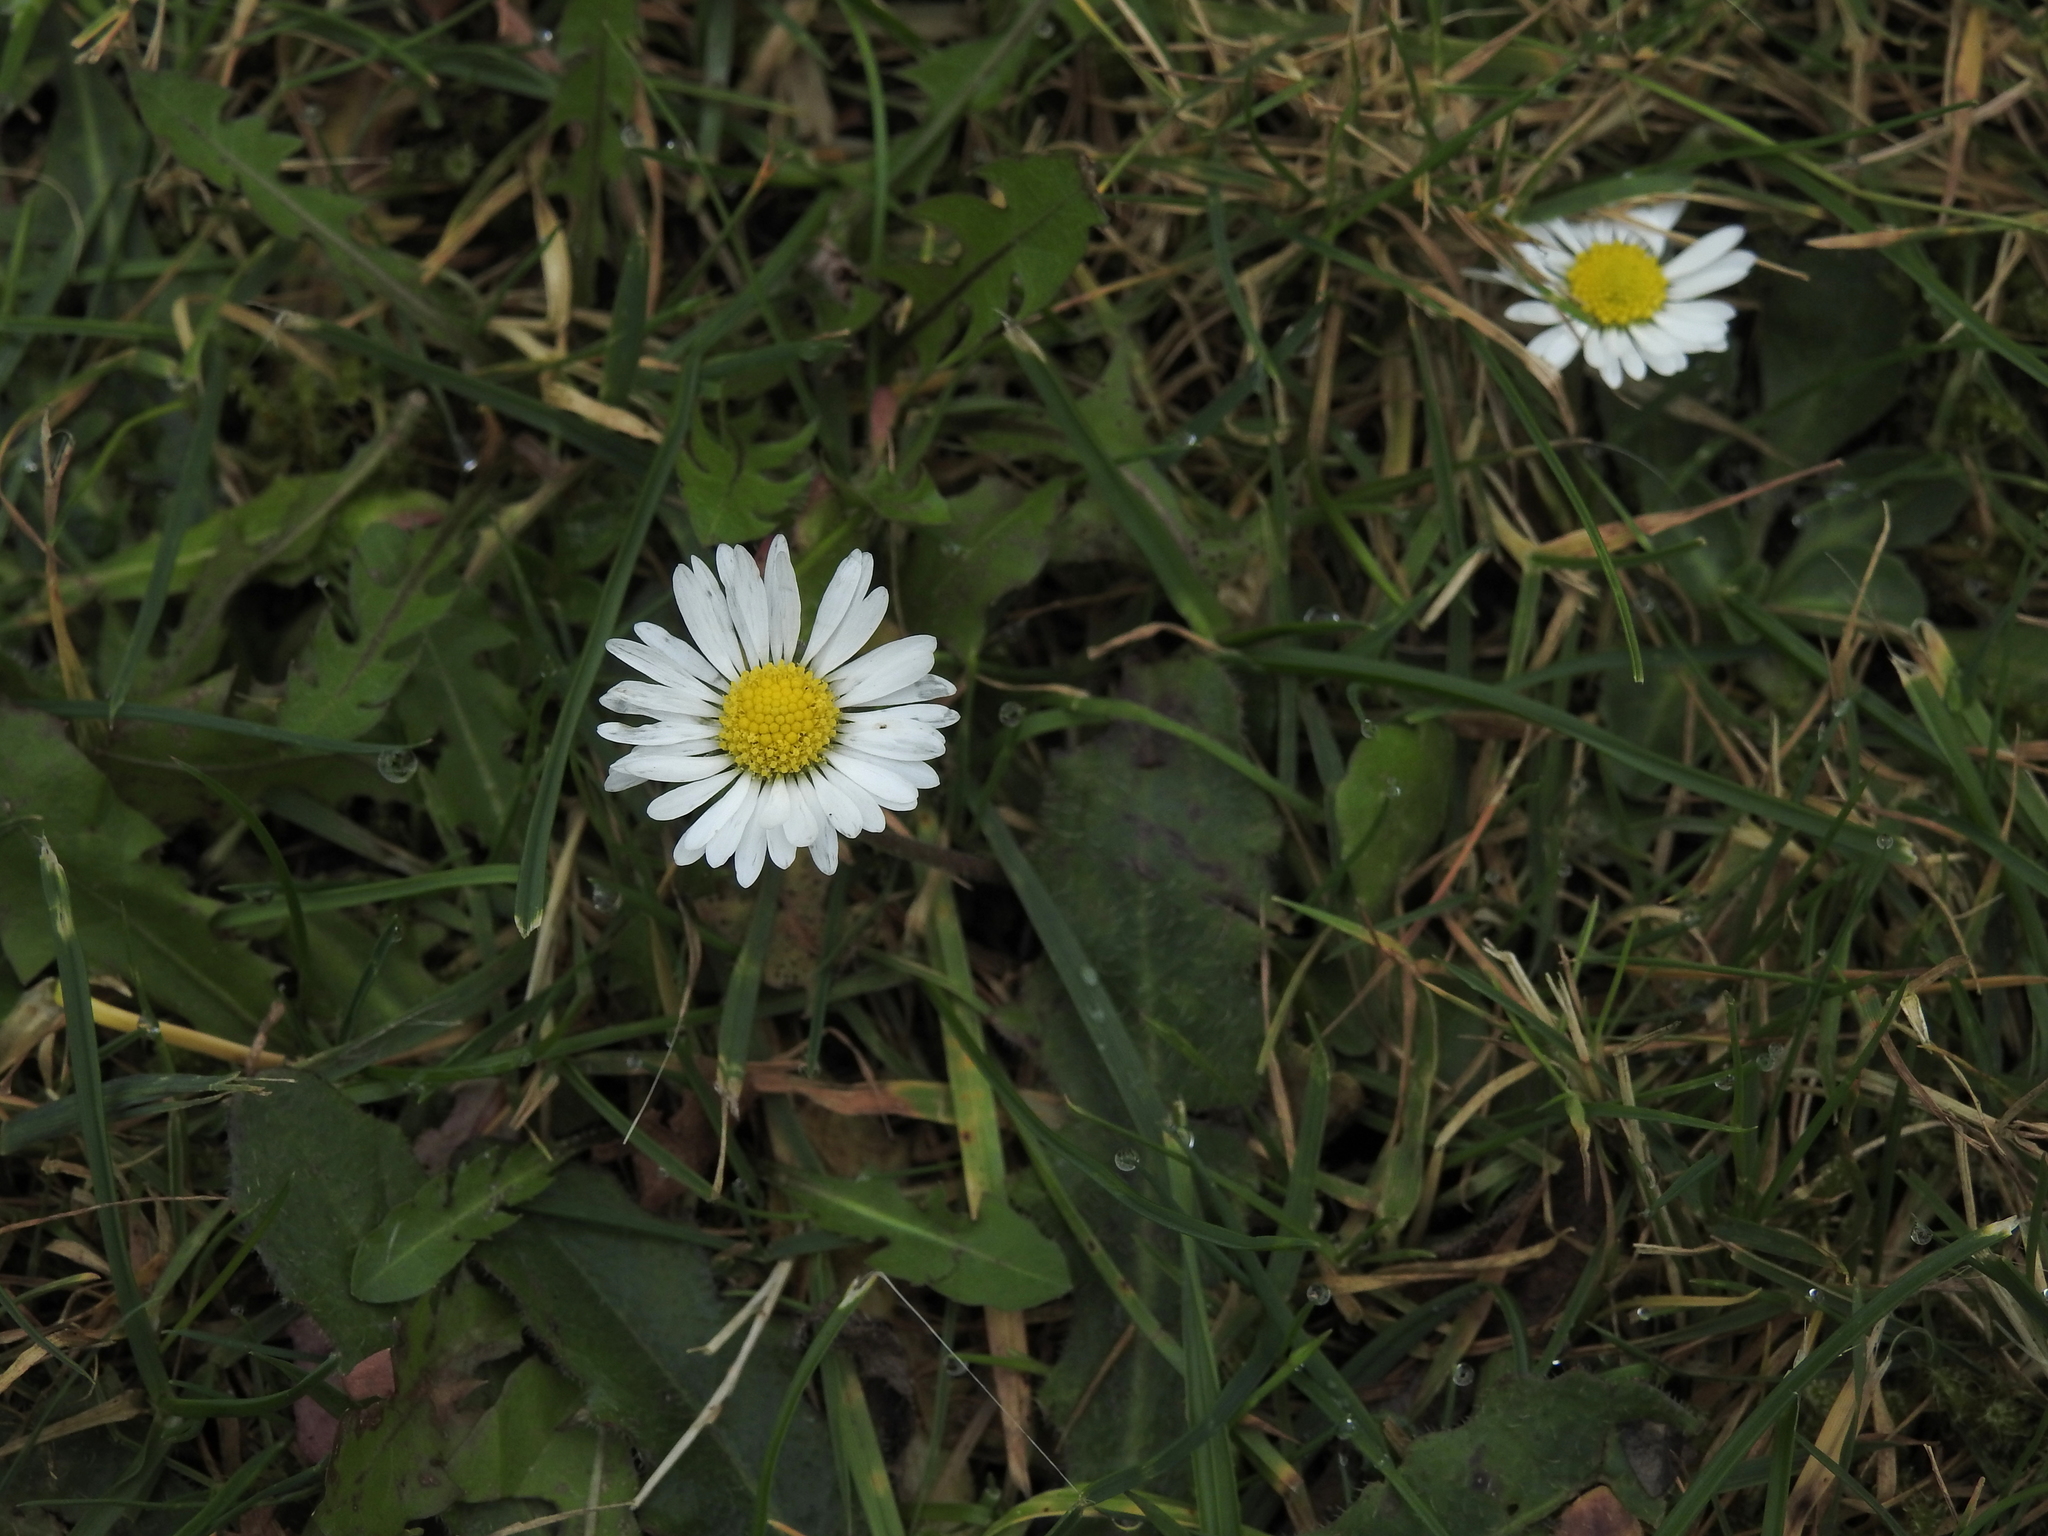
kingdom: Plantae
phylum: Tracheophyta
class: Magnoliopsida
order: Asterales
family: Asteraceae
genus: Bellis
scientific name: Bellis perennis
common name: Lawndaisy
